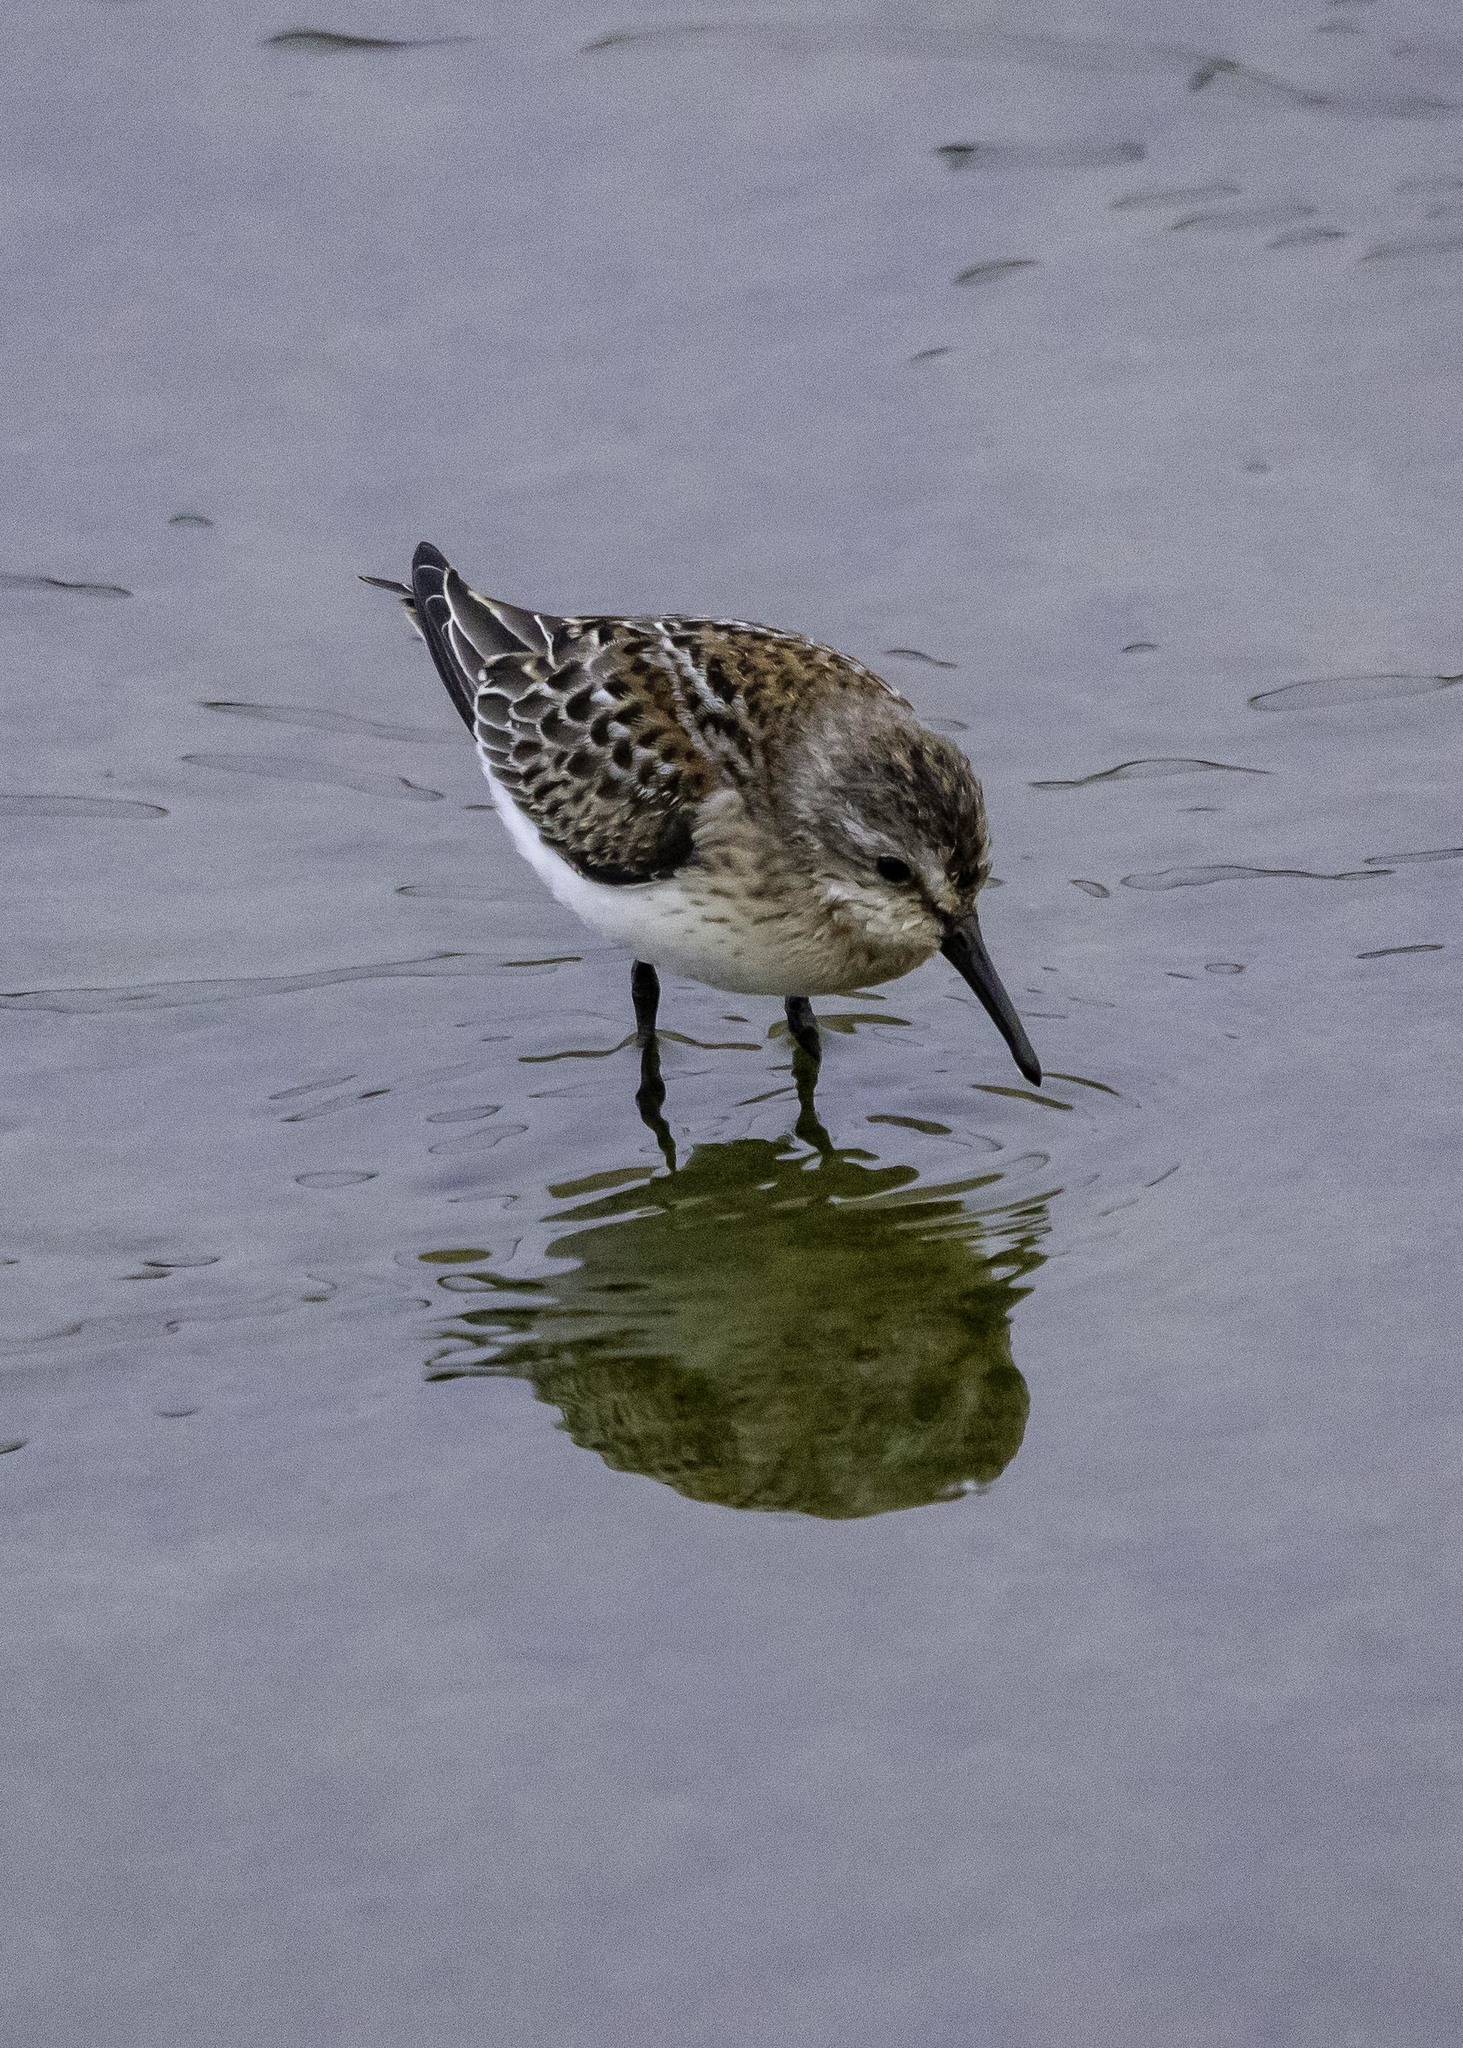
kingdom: Animalia
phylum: Chordata
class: Aves
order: Charadriiformes
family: Scolopacidae
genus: Calidris
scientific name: Calidris mauri
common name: Western sandpiper
